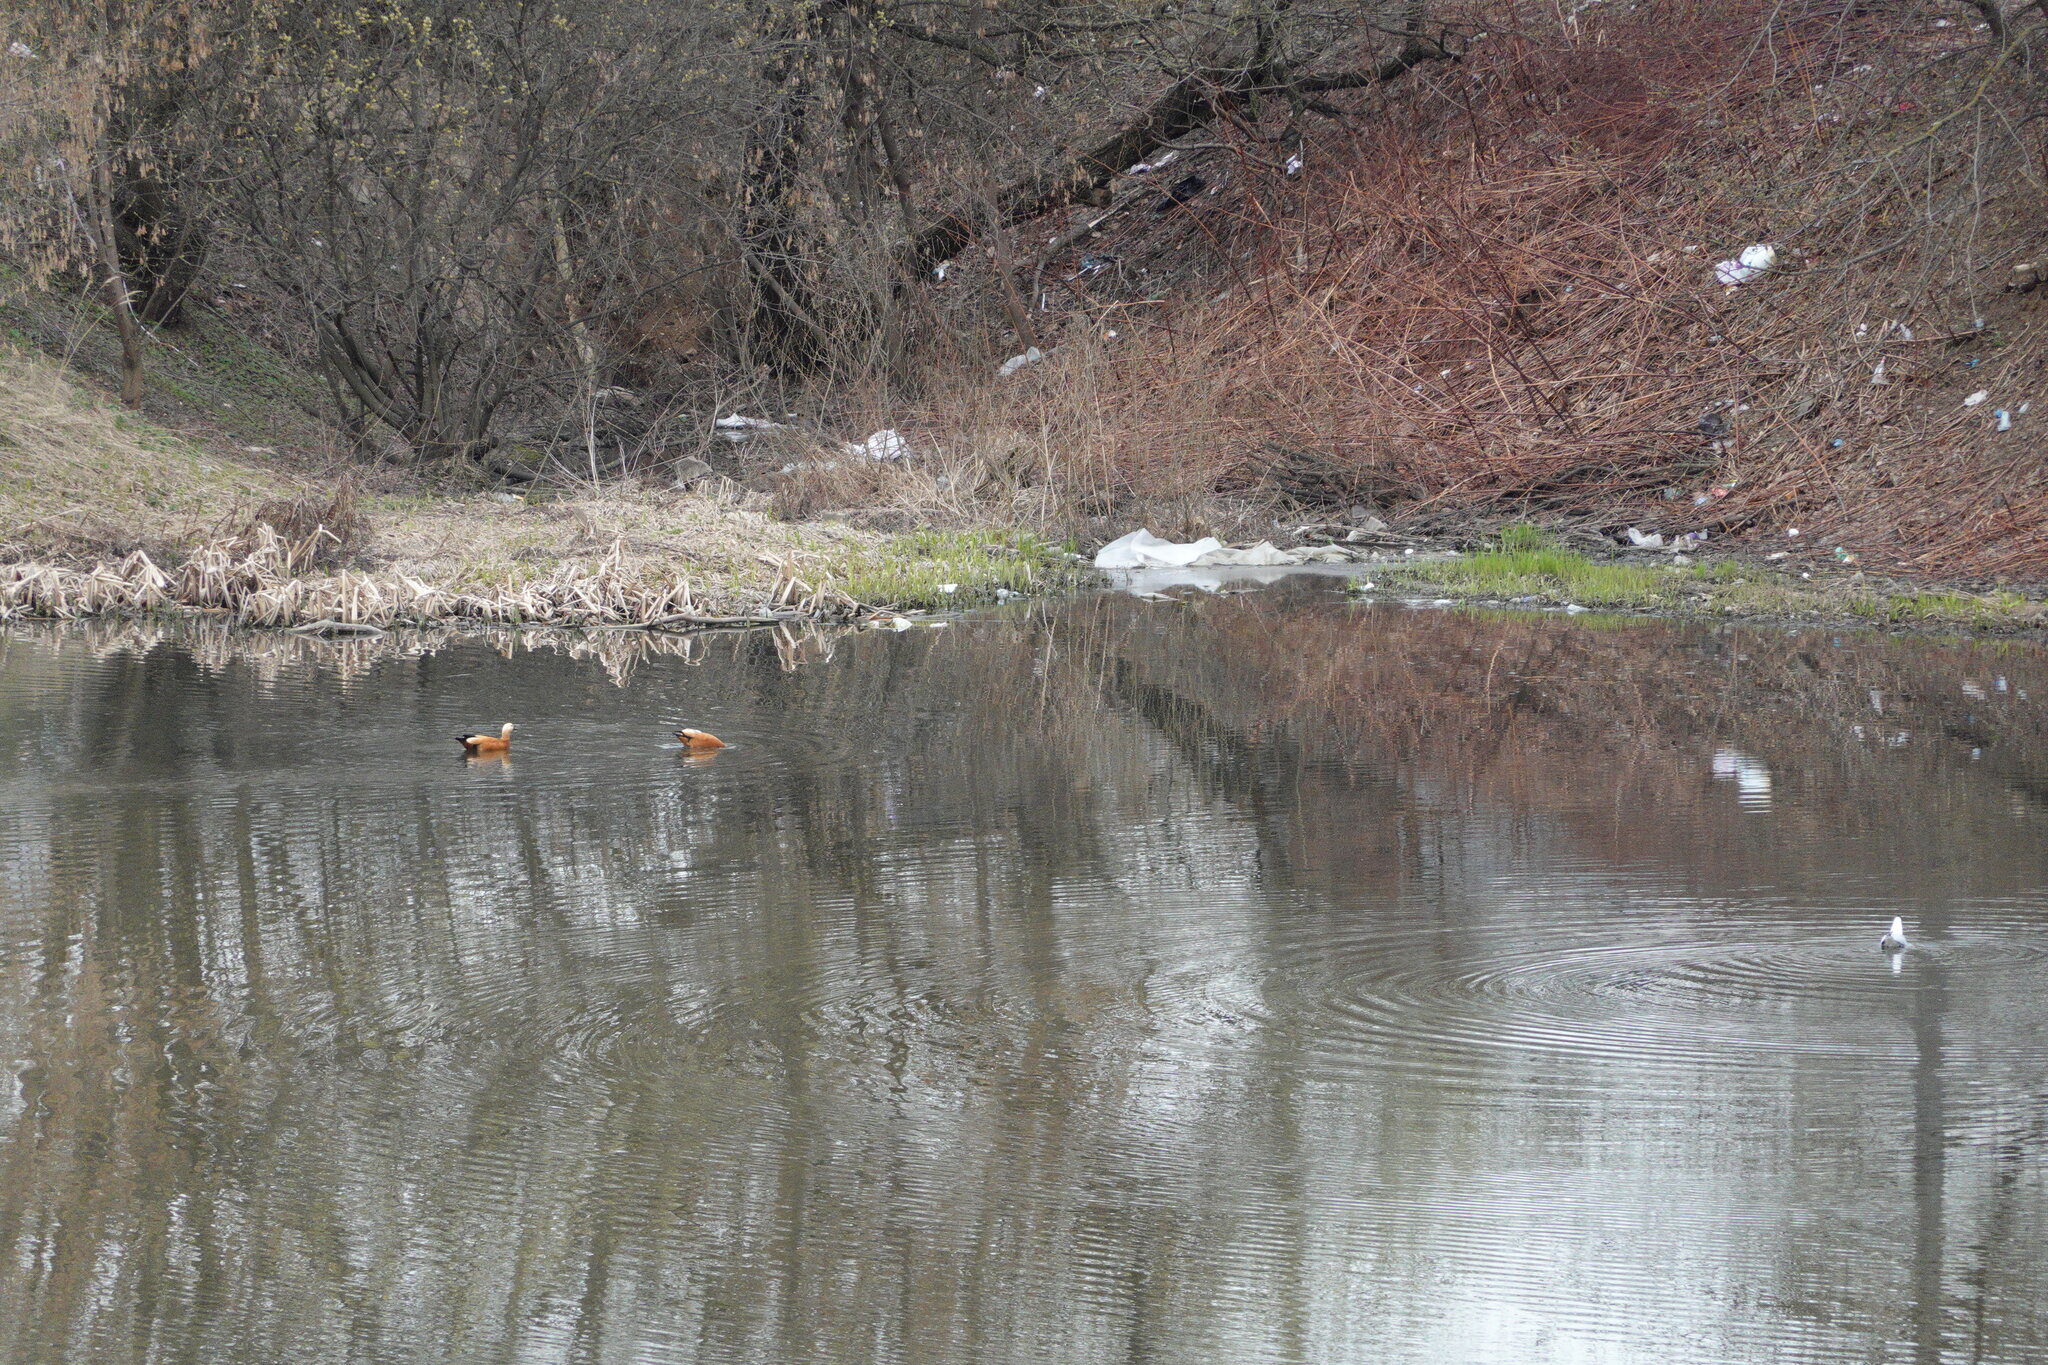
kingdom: Animalia
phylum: Chordata
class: Aves
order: Anseriformes
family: Anatidae
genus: Tadorna
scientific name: Tadorna ferruginea
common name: Ruddy shelduck
